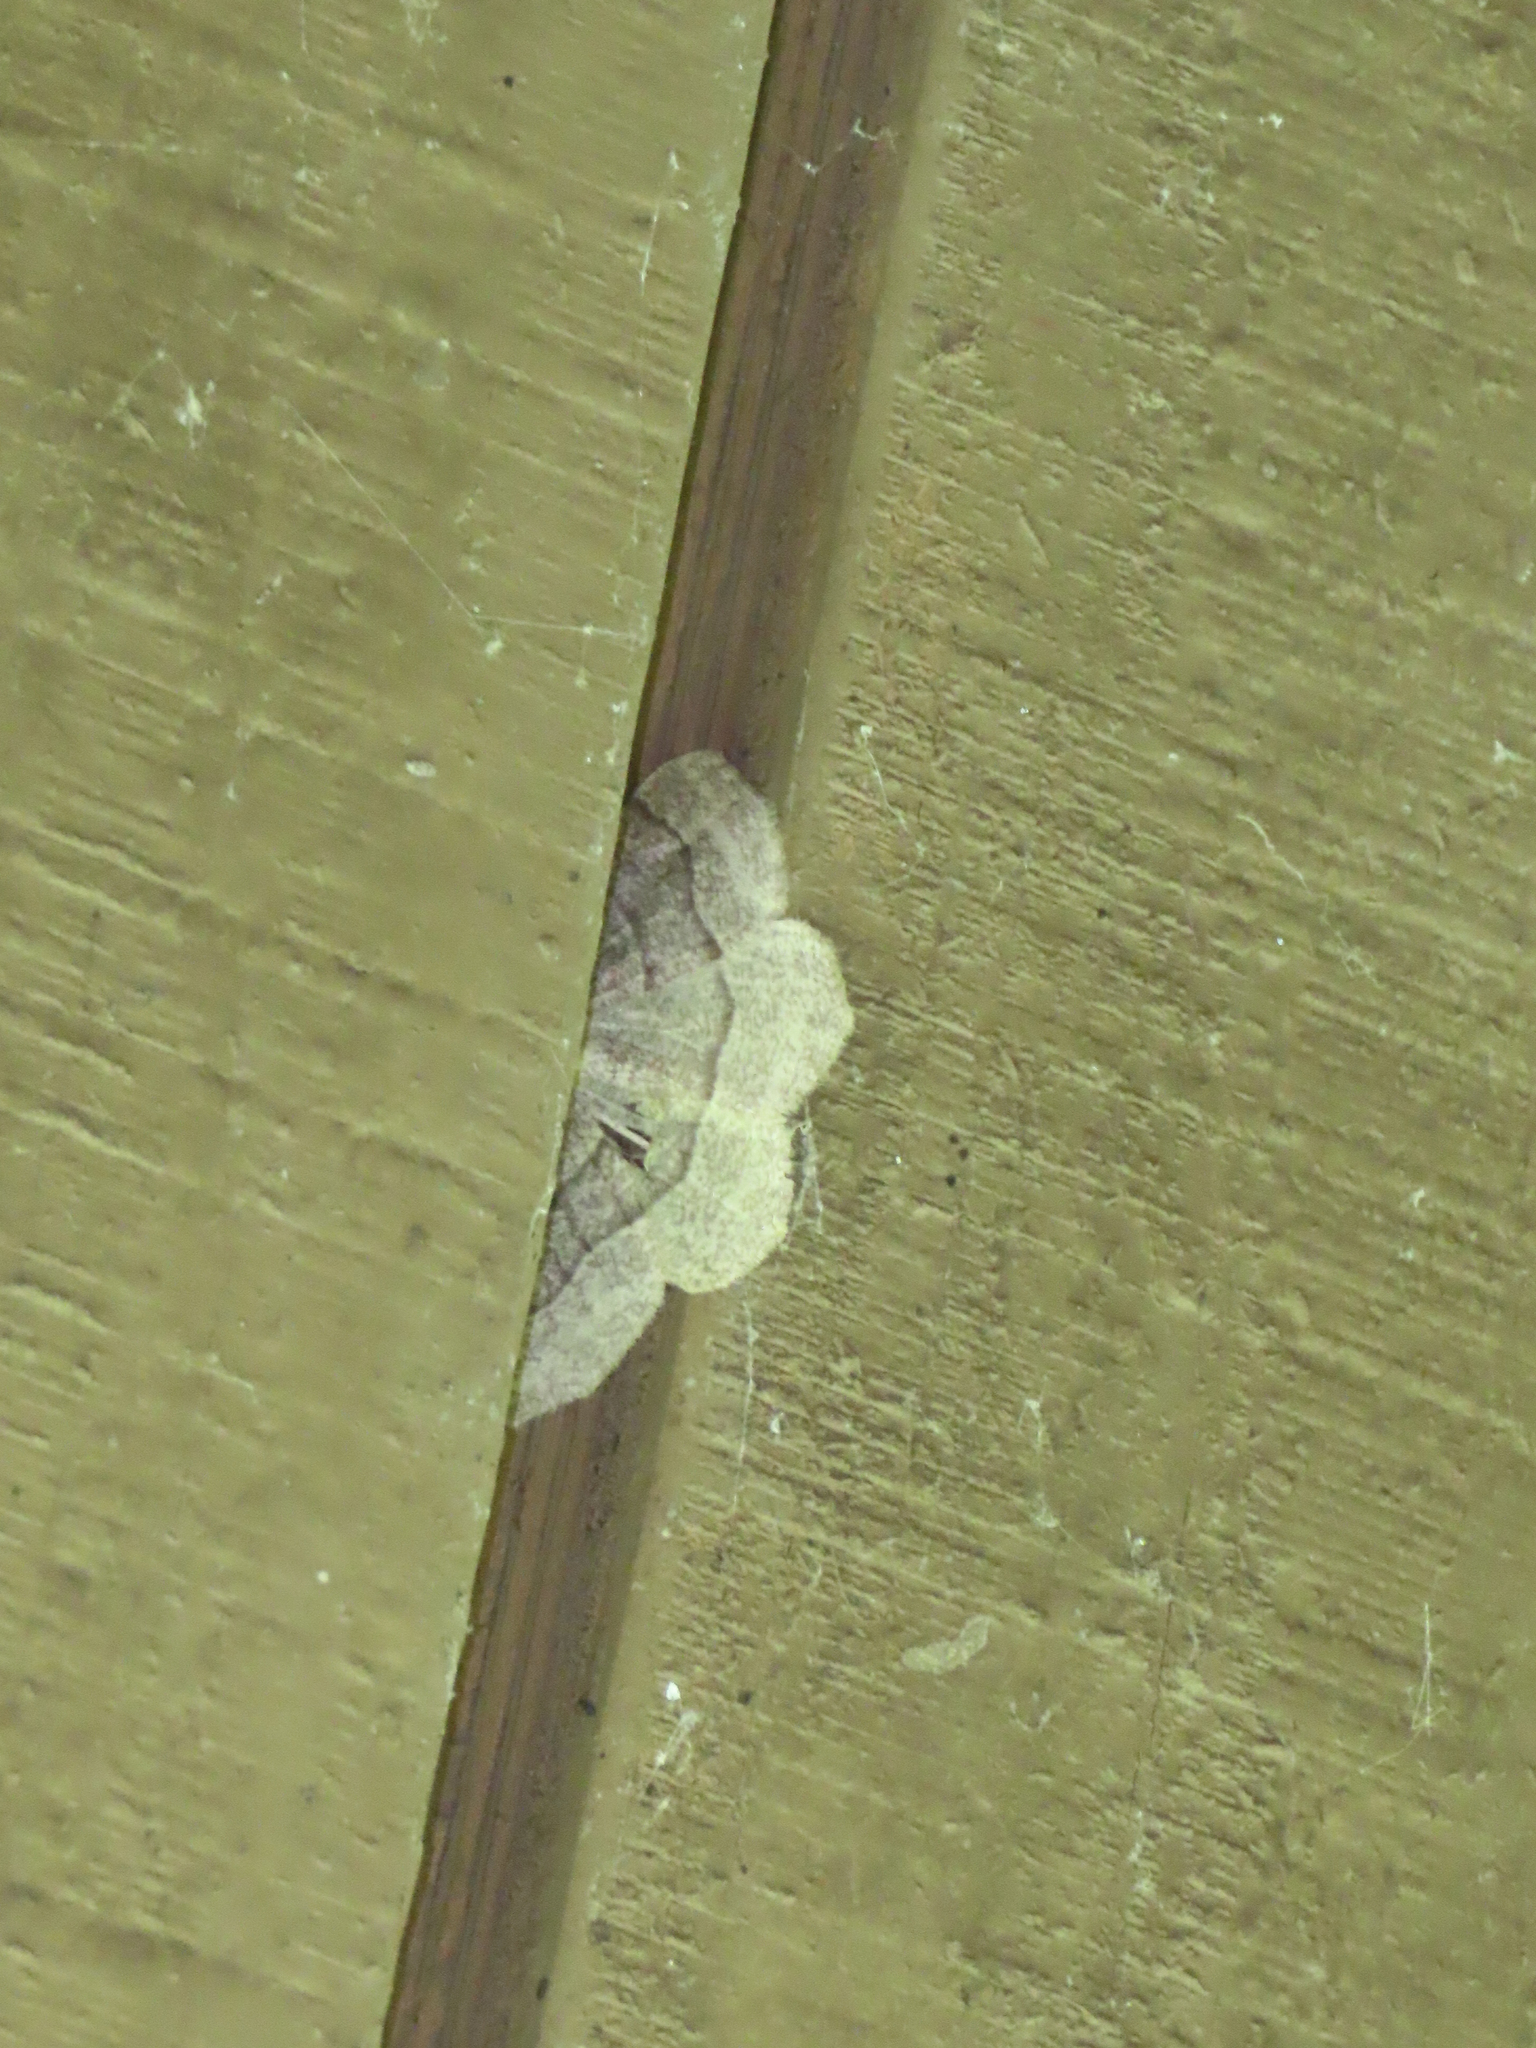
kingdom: Animalia
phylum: Arthropoda
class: Insecta
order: Lepidoptera
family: Geometridae
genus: Lambdina
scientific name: Lambdina fervidaria
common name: Curve-lined looper moth
